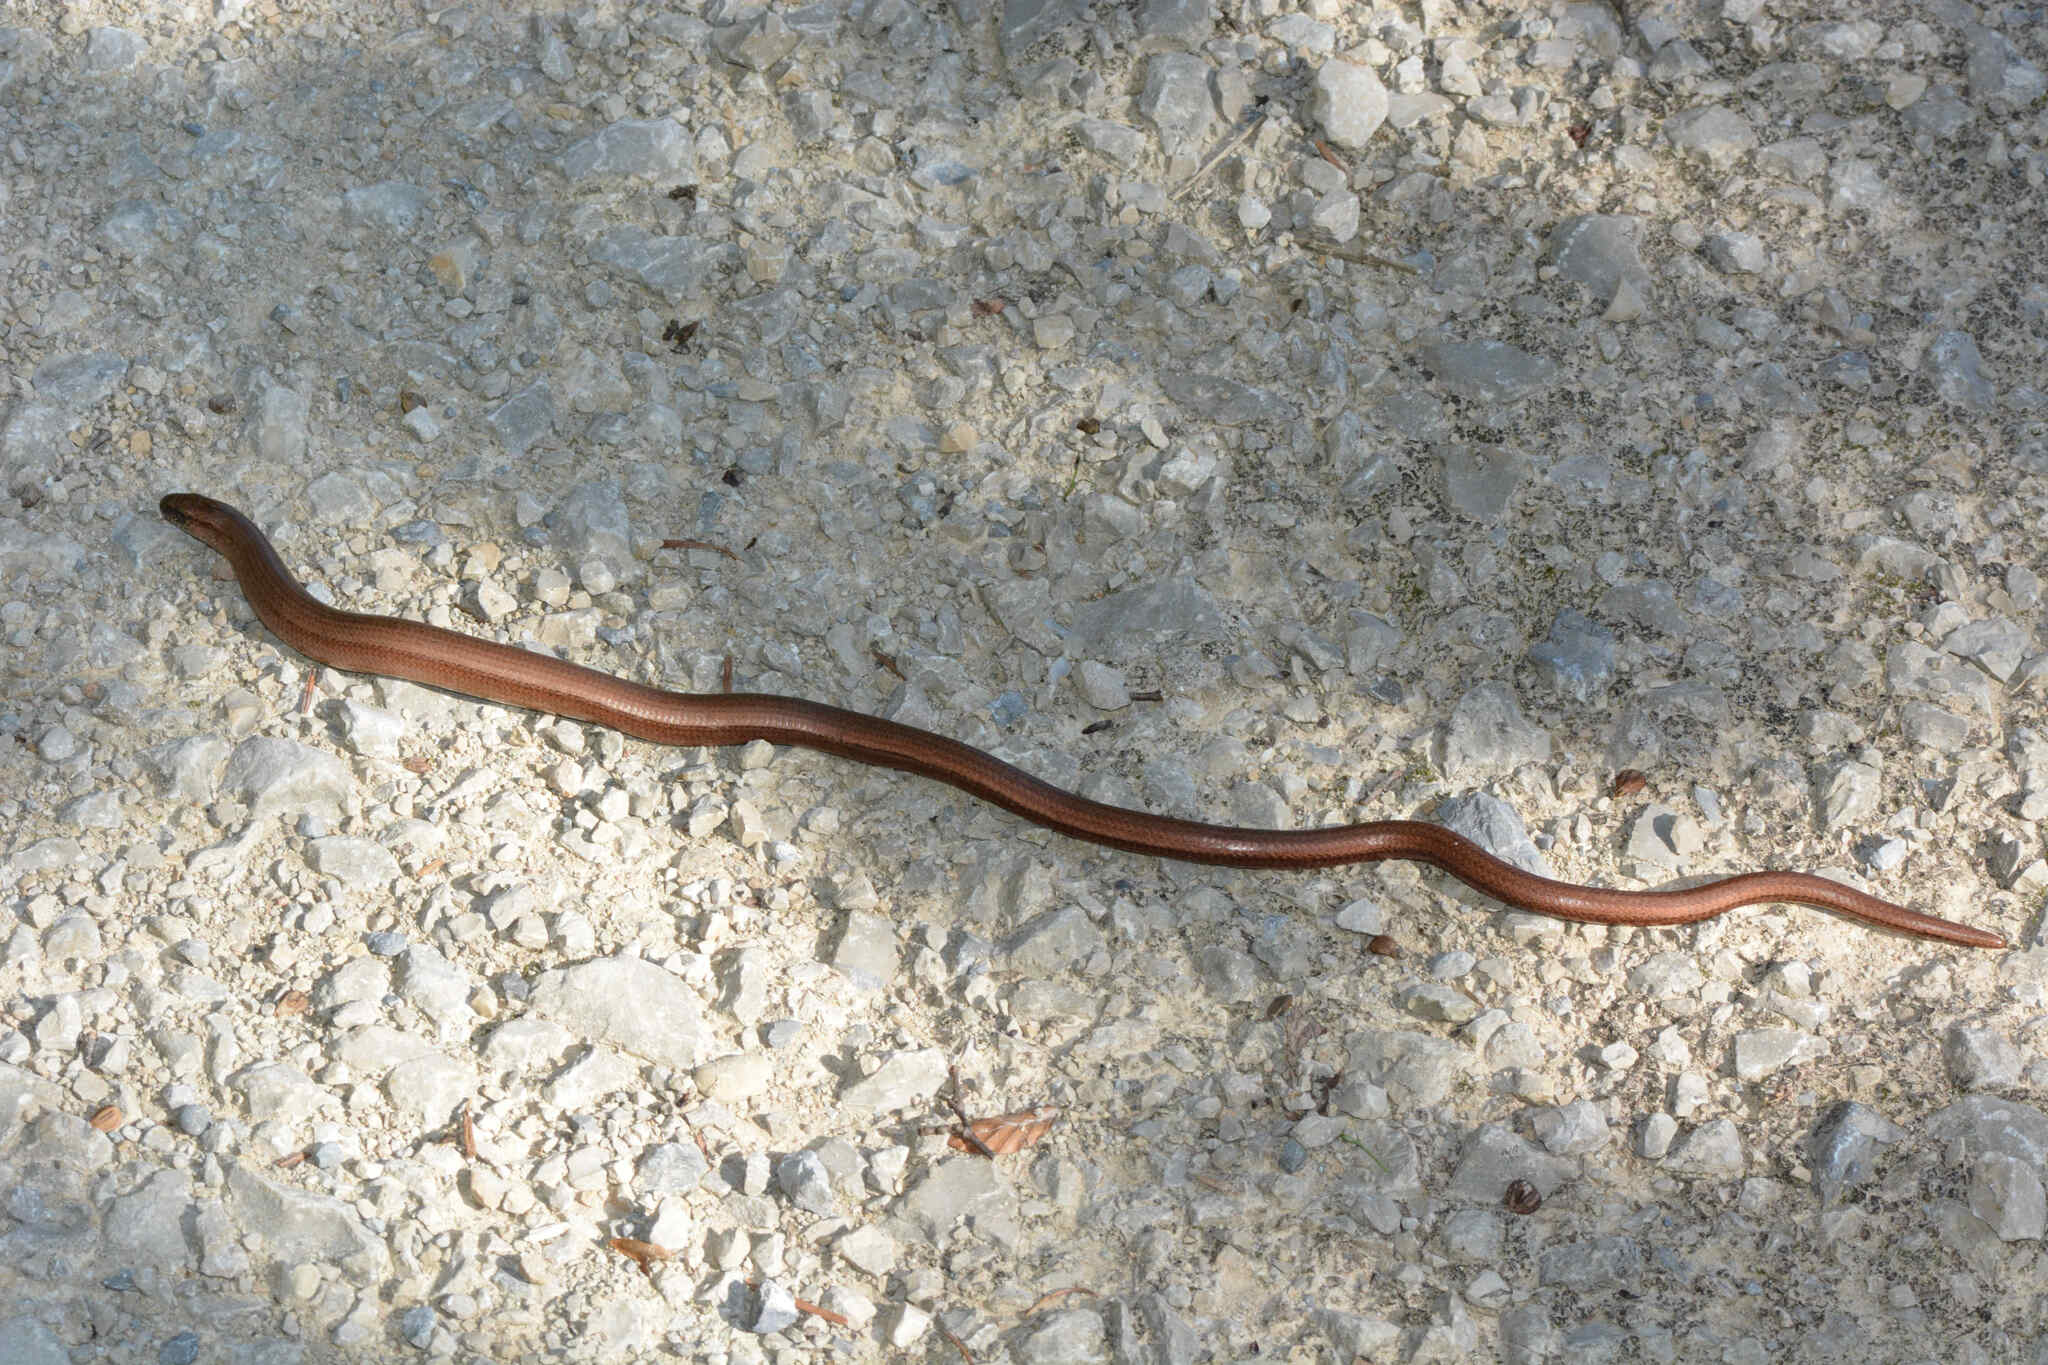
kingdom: Animalia
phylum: Chordata
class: Squamata
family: Anguidae
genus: Anguis
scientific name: Anguis fragilis
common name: Slow worm
